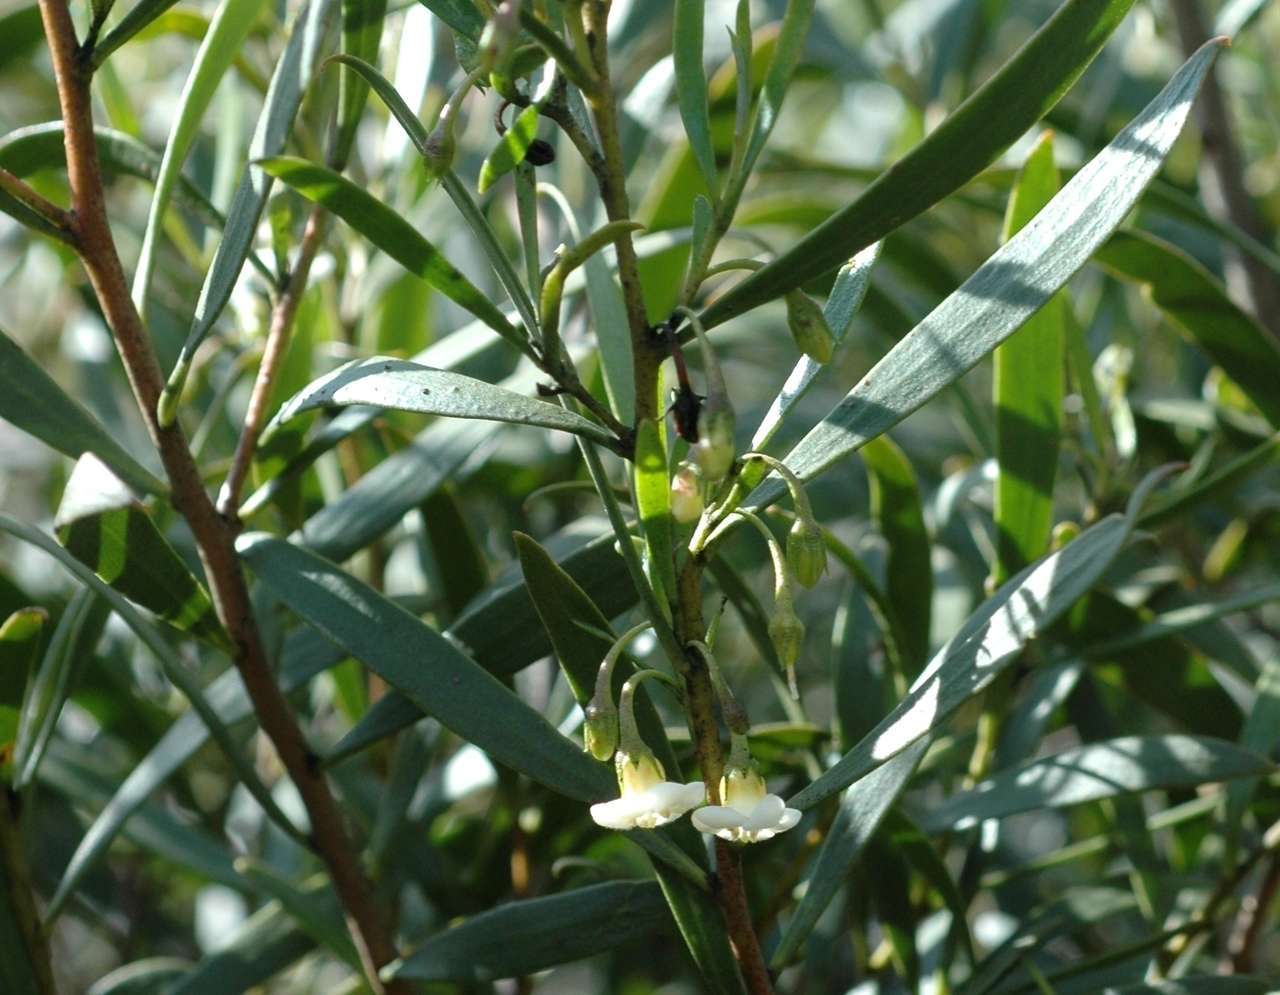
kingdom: Plantae
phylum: Tracheophyta
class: Magnoliopsida
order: Lamiales
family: Scrophulariaceae
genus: Eremophila
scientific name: Eremophila deserti
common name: Ellangowan-poisonbush
